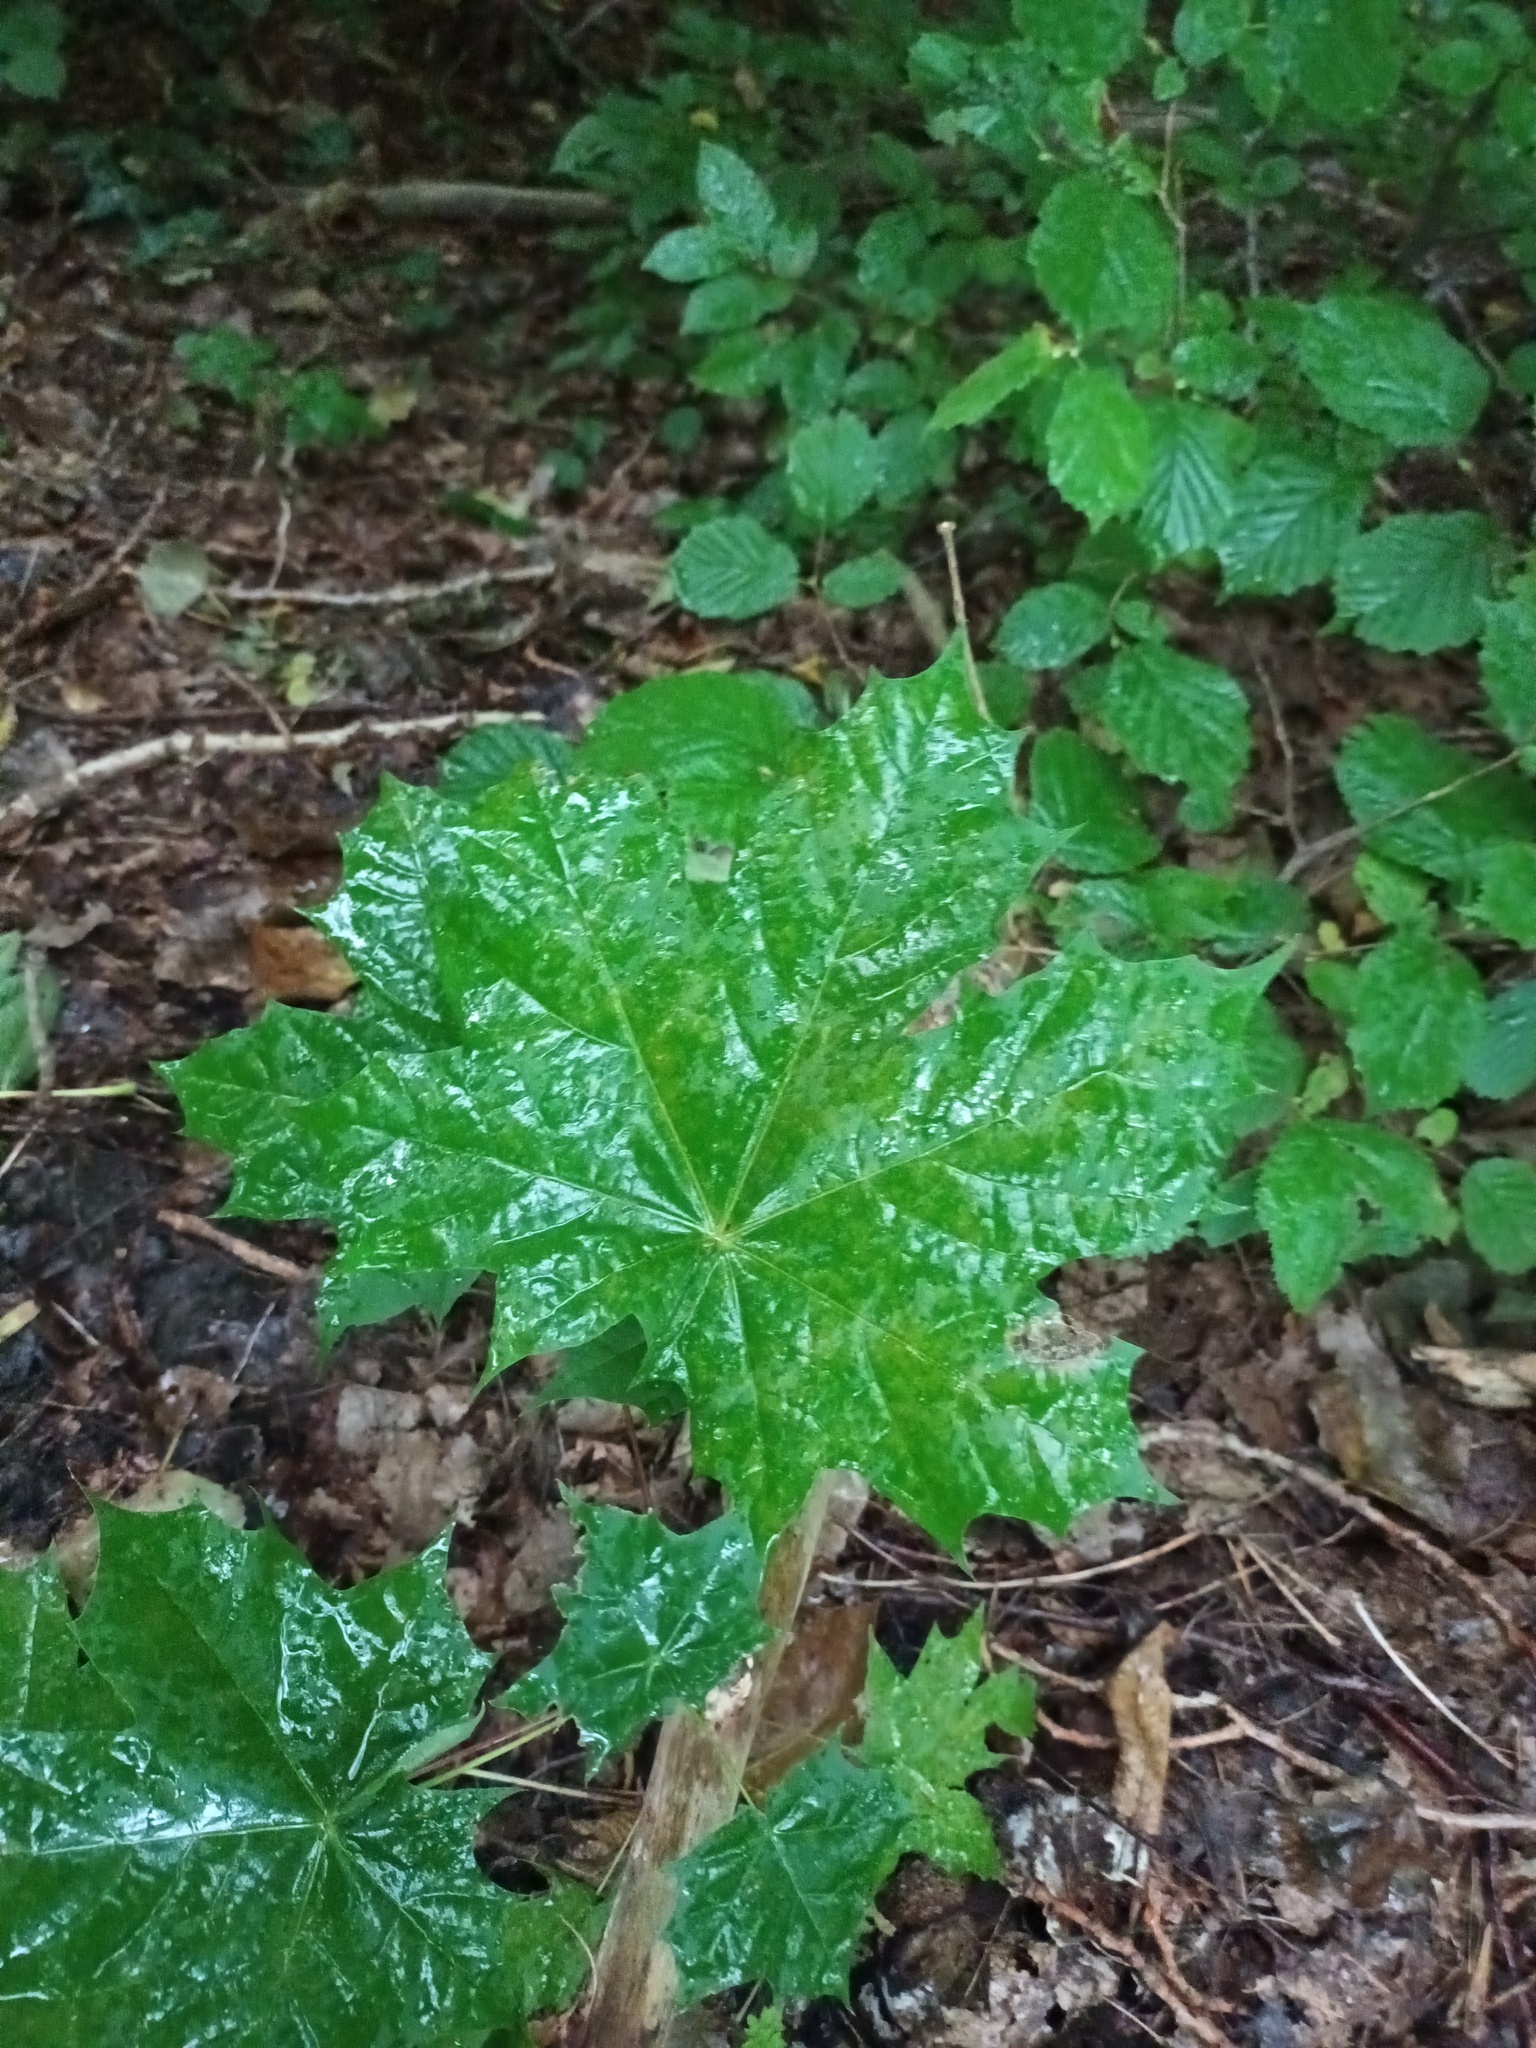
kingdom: Plantae
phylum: Tracheophyta
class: Magnoliopsida
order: Sapindales
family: Sapindaceae
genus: Acer
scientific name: Acer platanoides
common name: Norway maple
